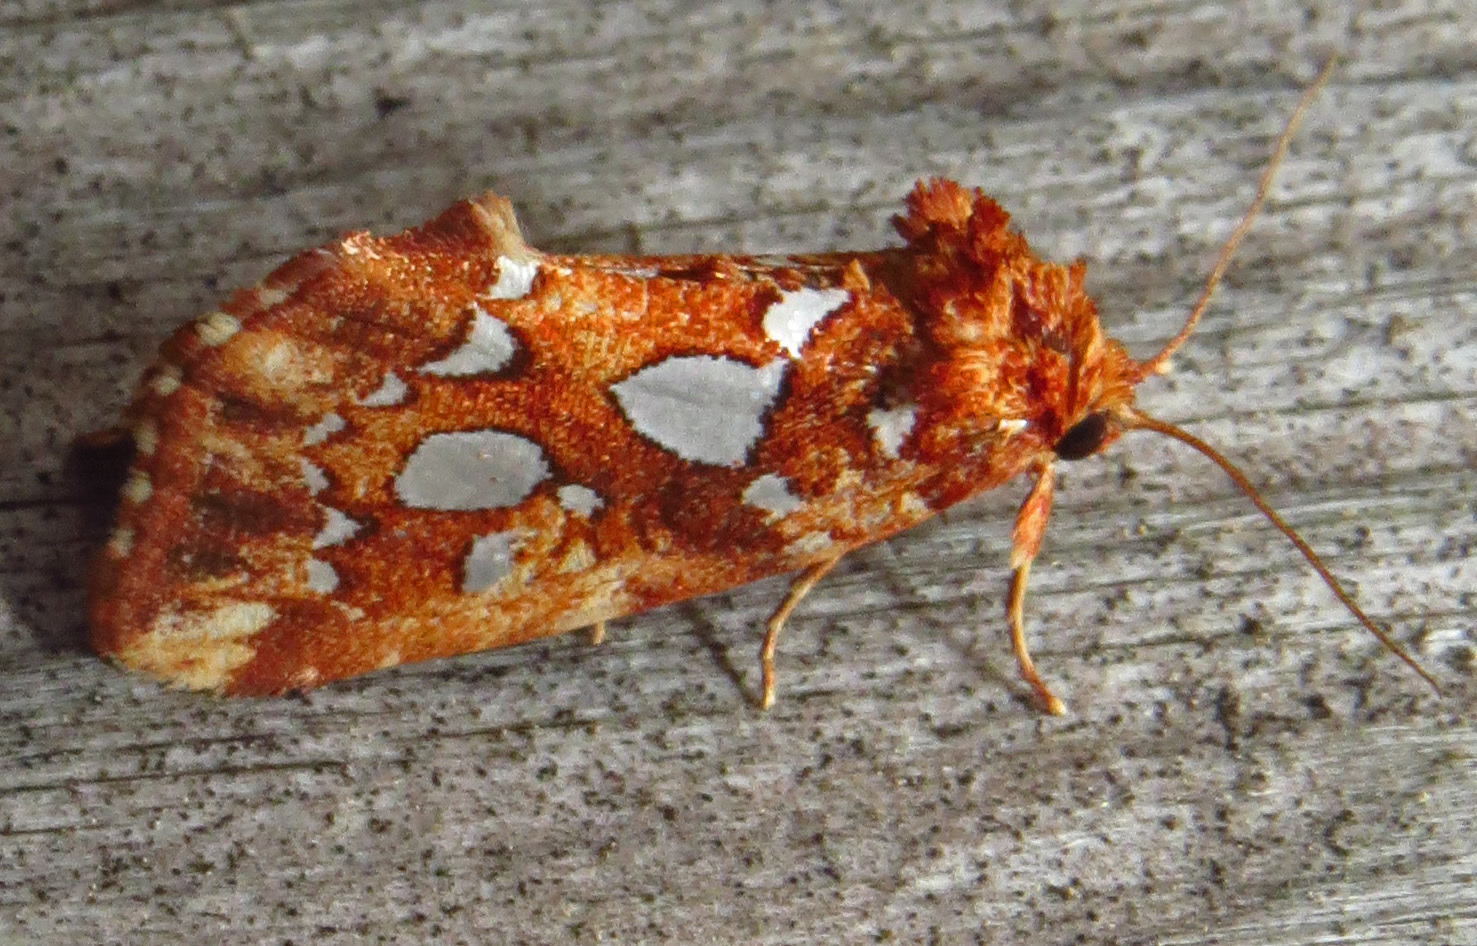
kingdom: Animalia
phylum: Arthropoda
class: Insecta
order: Lepidoptera
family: Noctuidae
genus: Callopistria
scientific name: Callopistria cordata
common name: Silver-spotted fern moth
